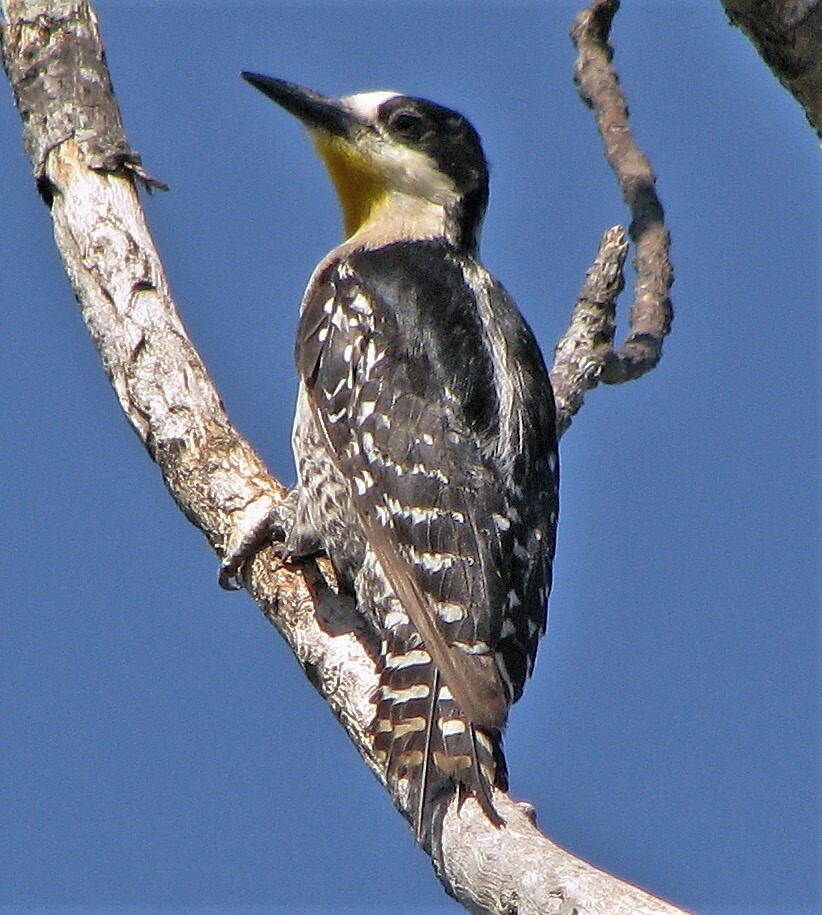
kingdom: Animalia
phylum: Chordata
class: Aves
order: Piciformes
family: Picidae
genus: Melanerpes
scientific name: Melanerpes cactorum
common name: White-fronted woodpecker
